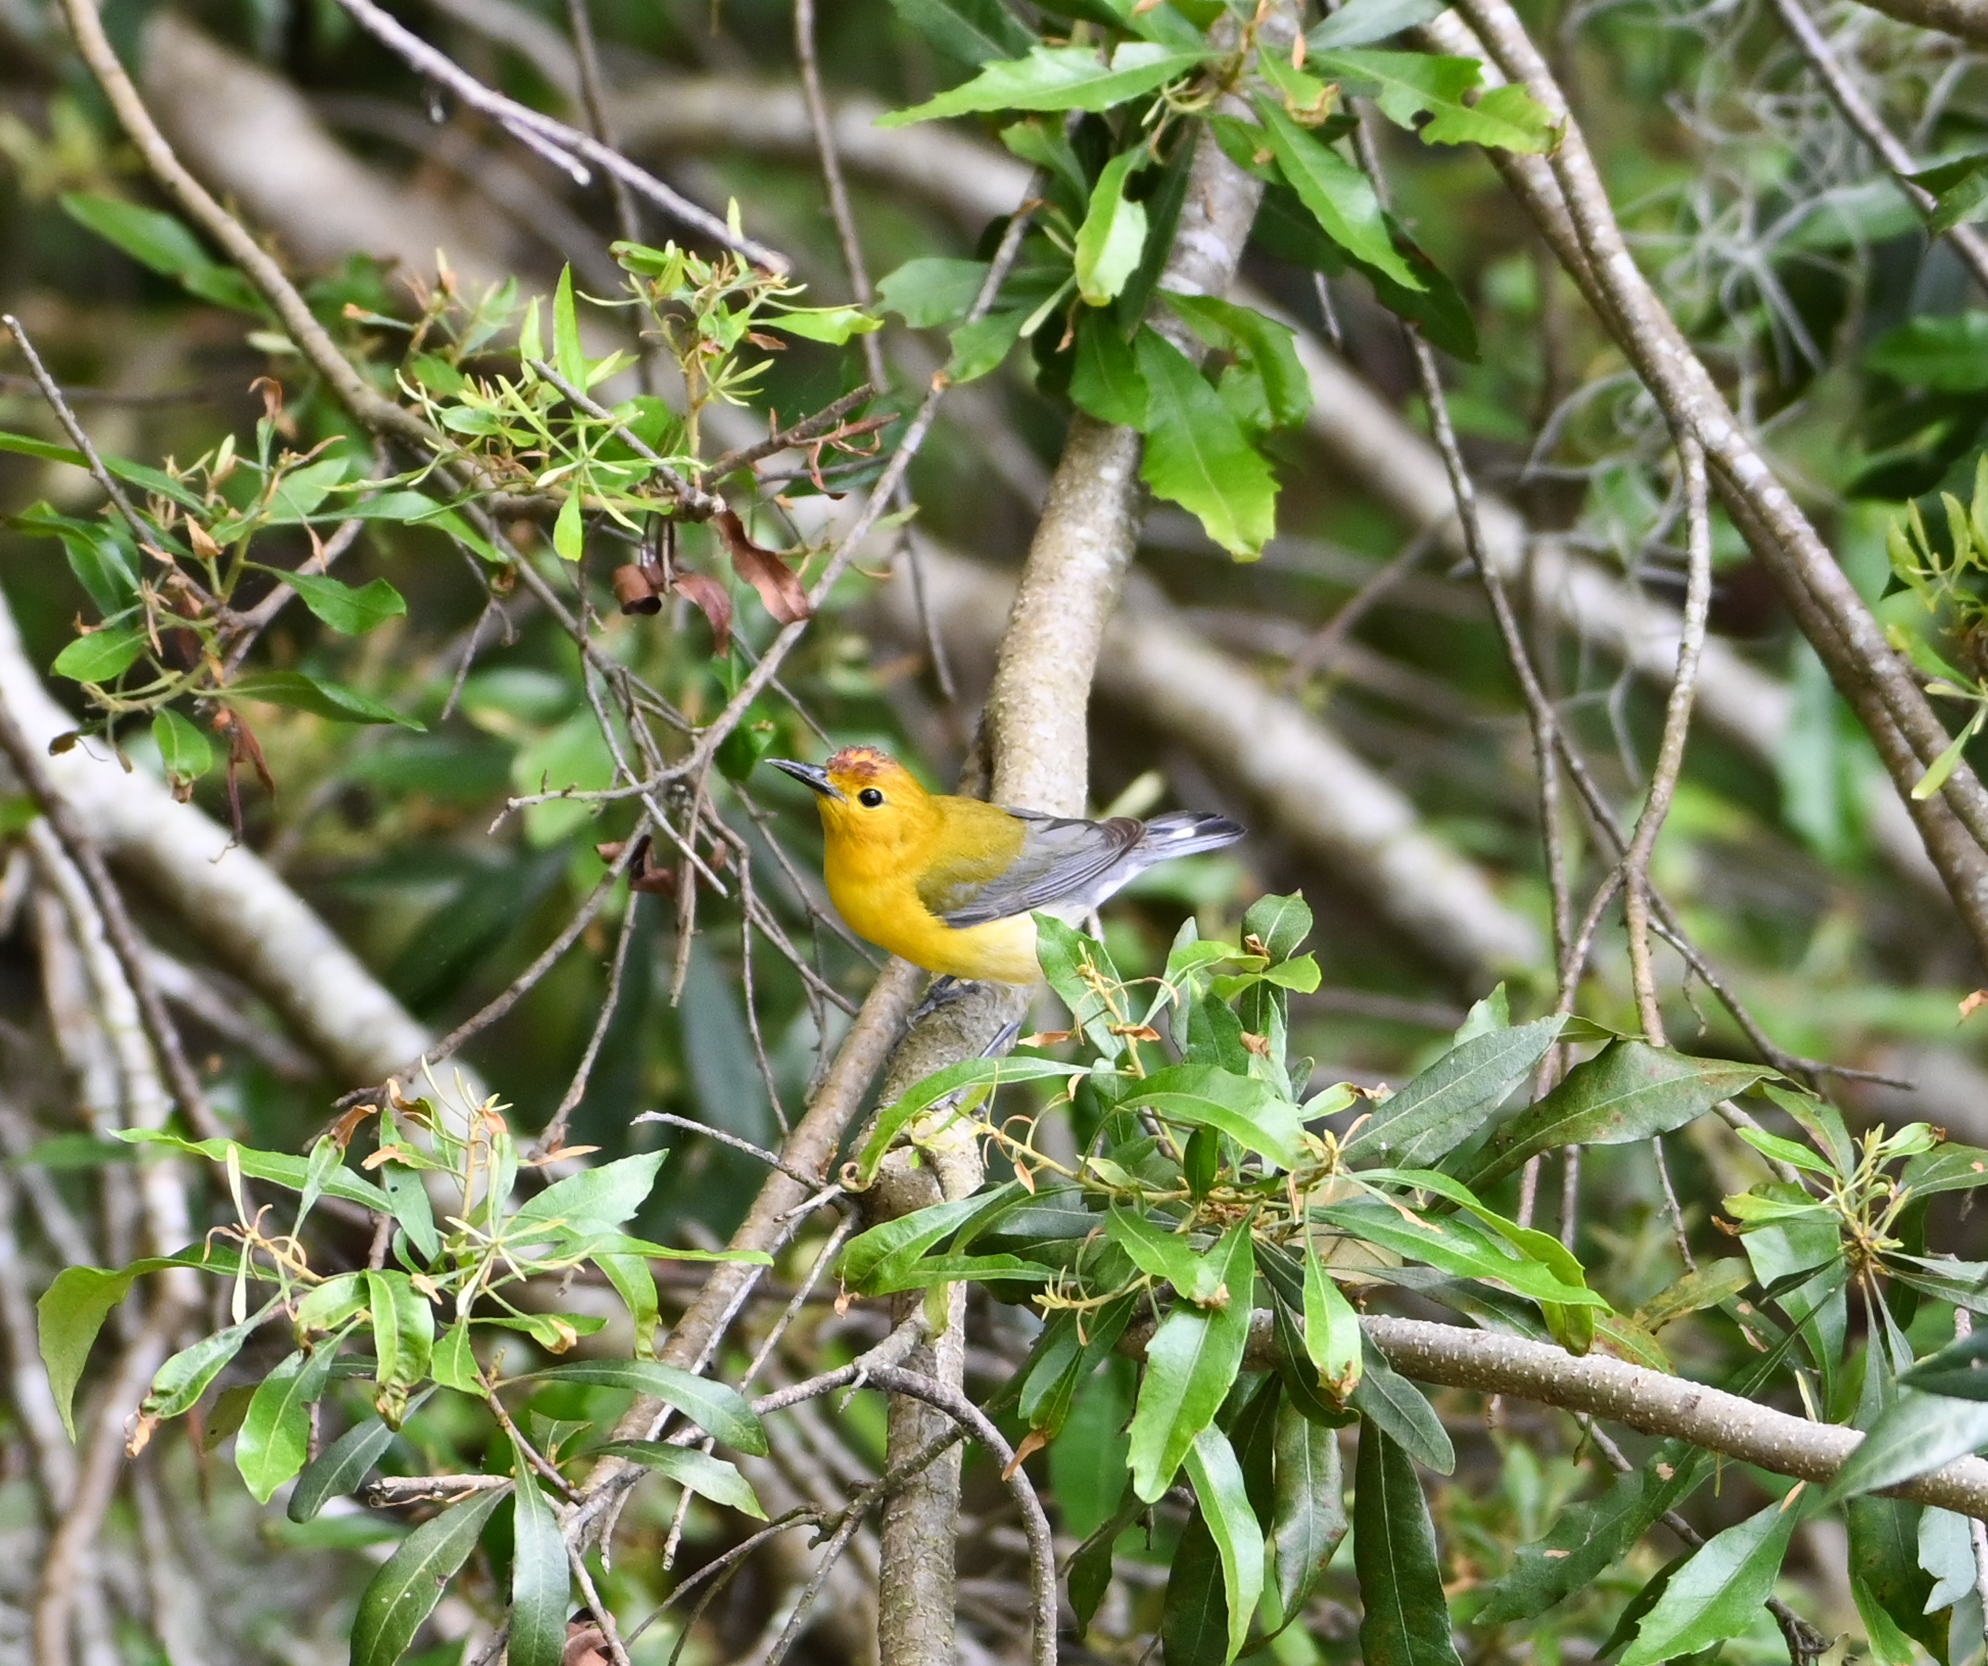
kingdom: Animalia
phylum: Chordata
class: Aves
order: Passeriformes
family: Parulidae
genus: Protonotaria
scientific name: Protonotaria citrea
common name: Prothonotary warbler
